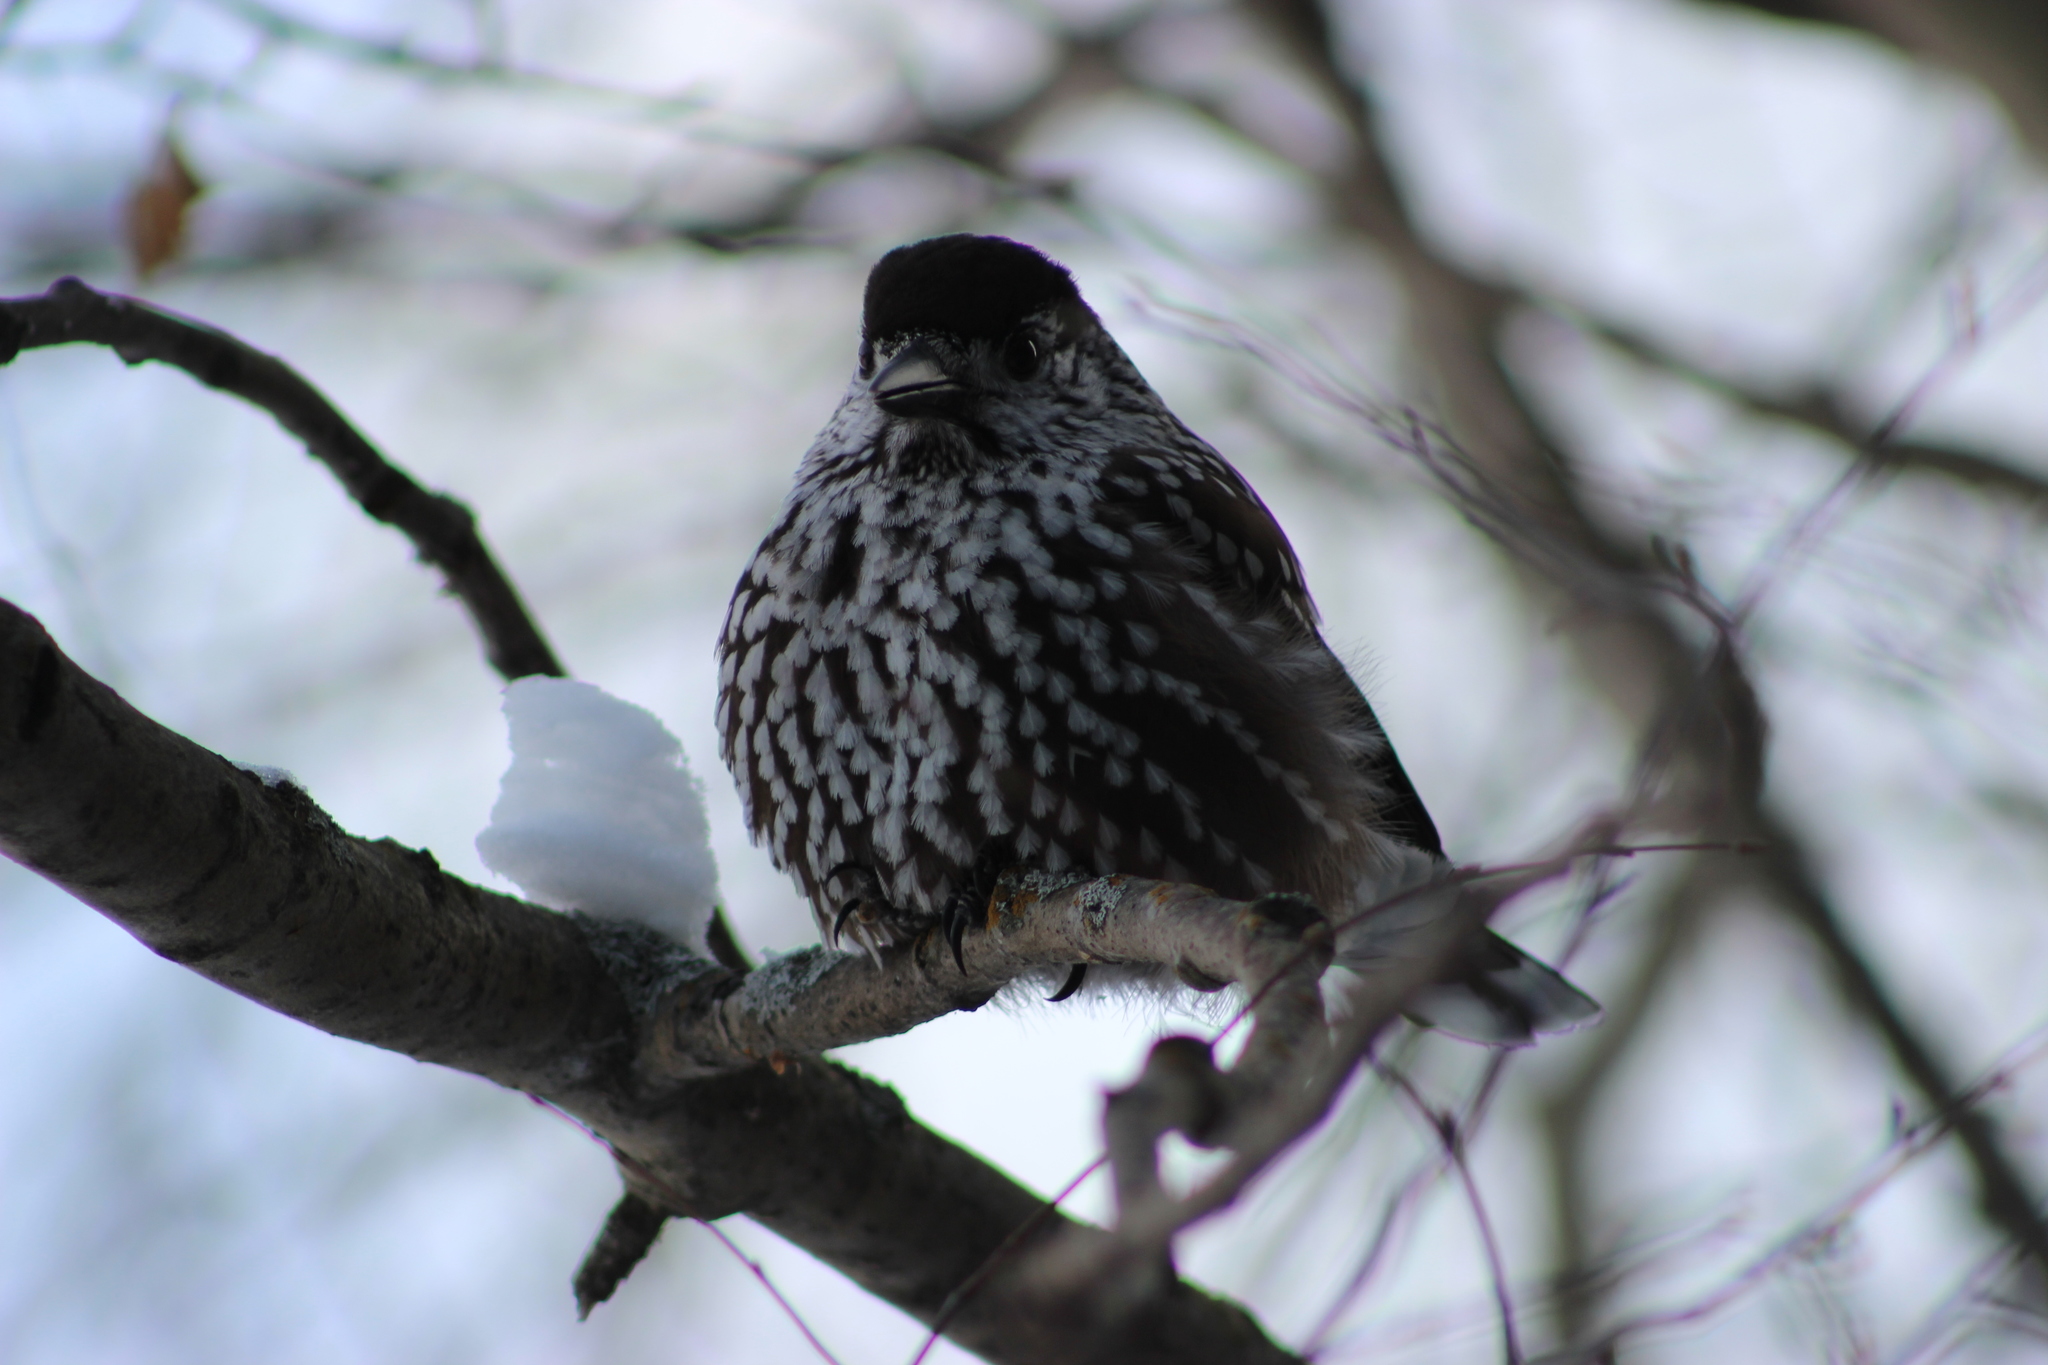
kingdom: Animalia
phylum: Chordata
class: Aves
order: Passeriformes
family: Corvidae
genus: Nucifraga
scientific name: Nucifraga caryocatactes
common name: Spotted nutcracker
